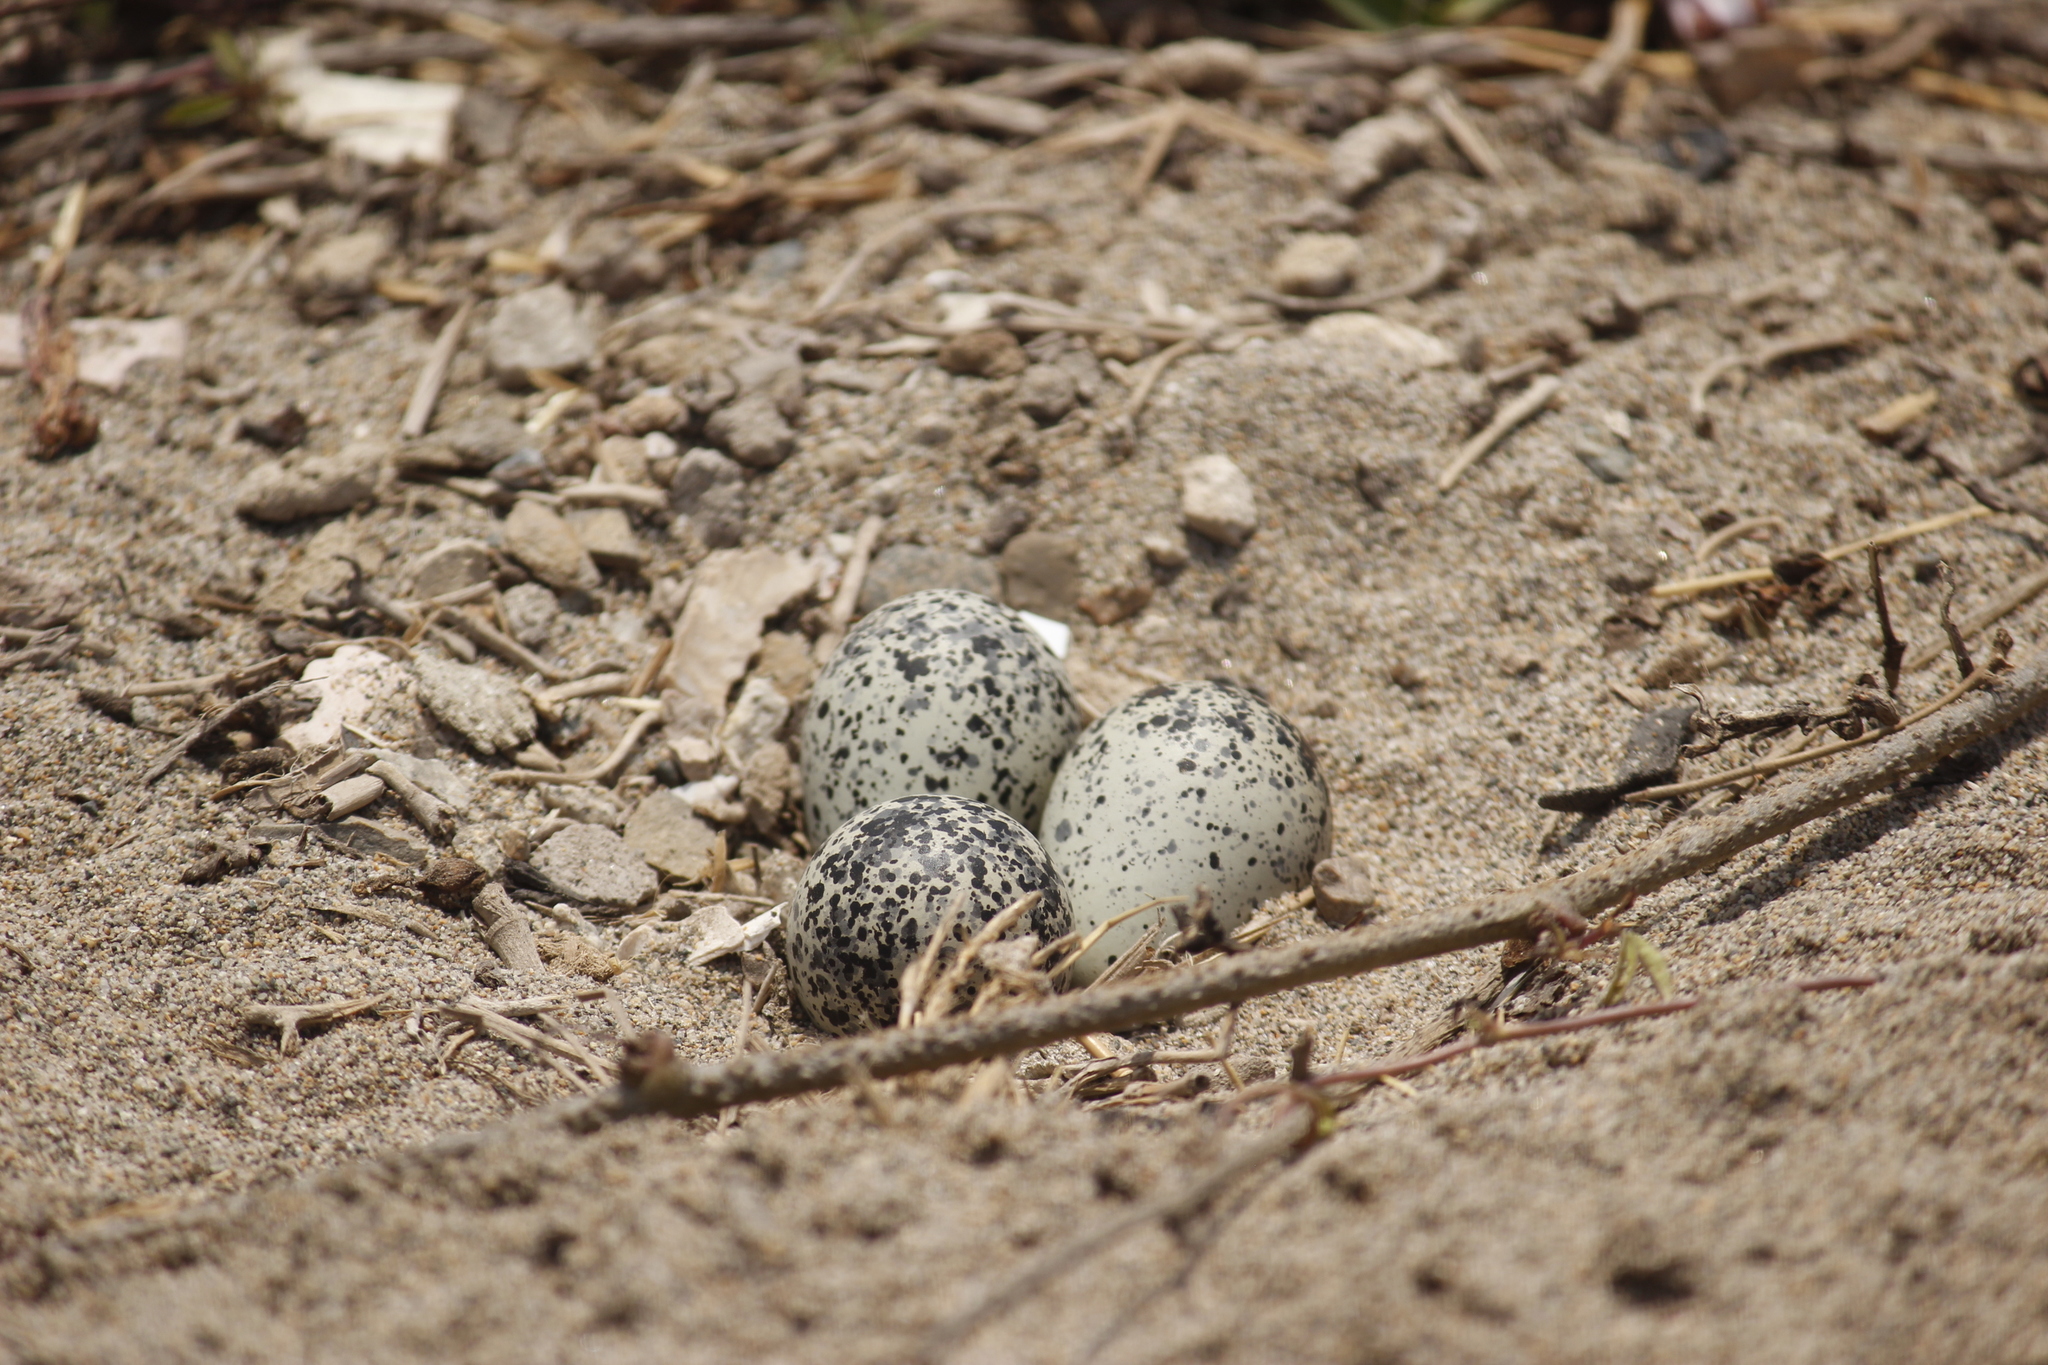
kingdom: Animalia
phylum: Chordata
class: Aves
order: Charadriiformes
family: Charadriidae
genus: Charadrius
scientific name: Charadrius vociferus
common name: Killdeer
